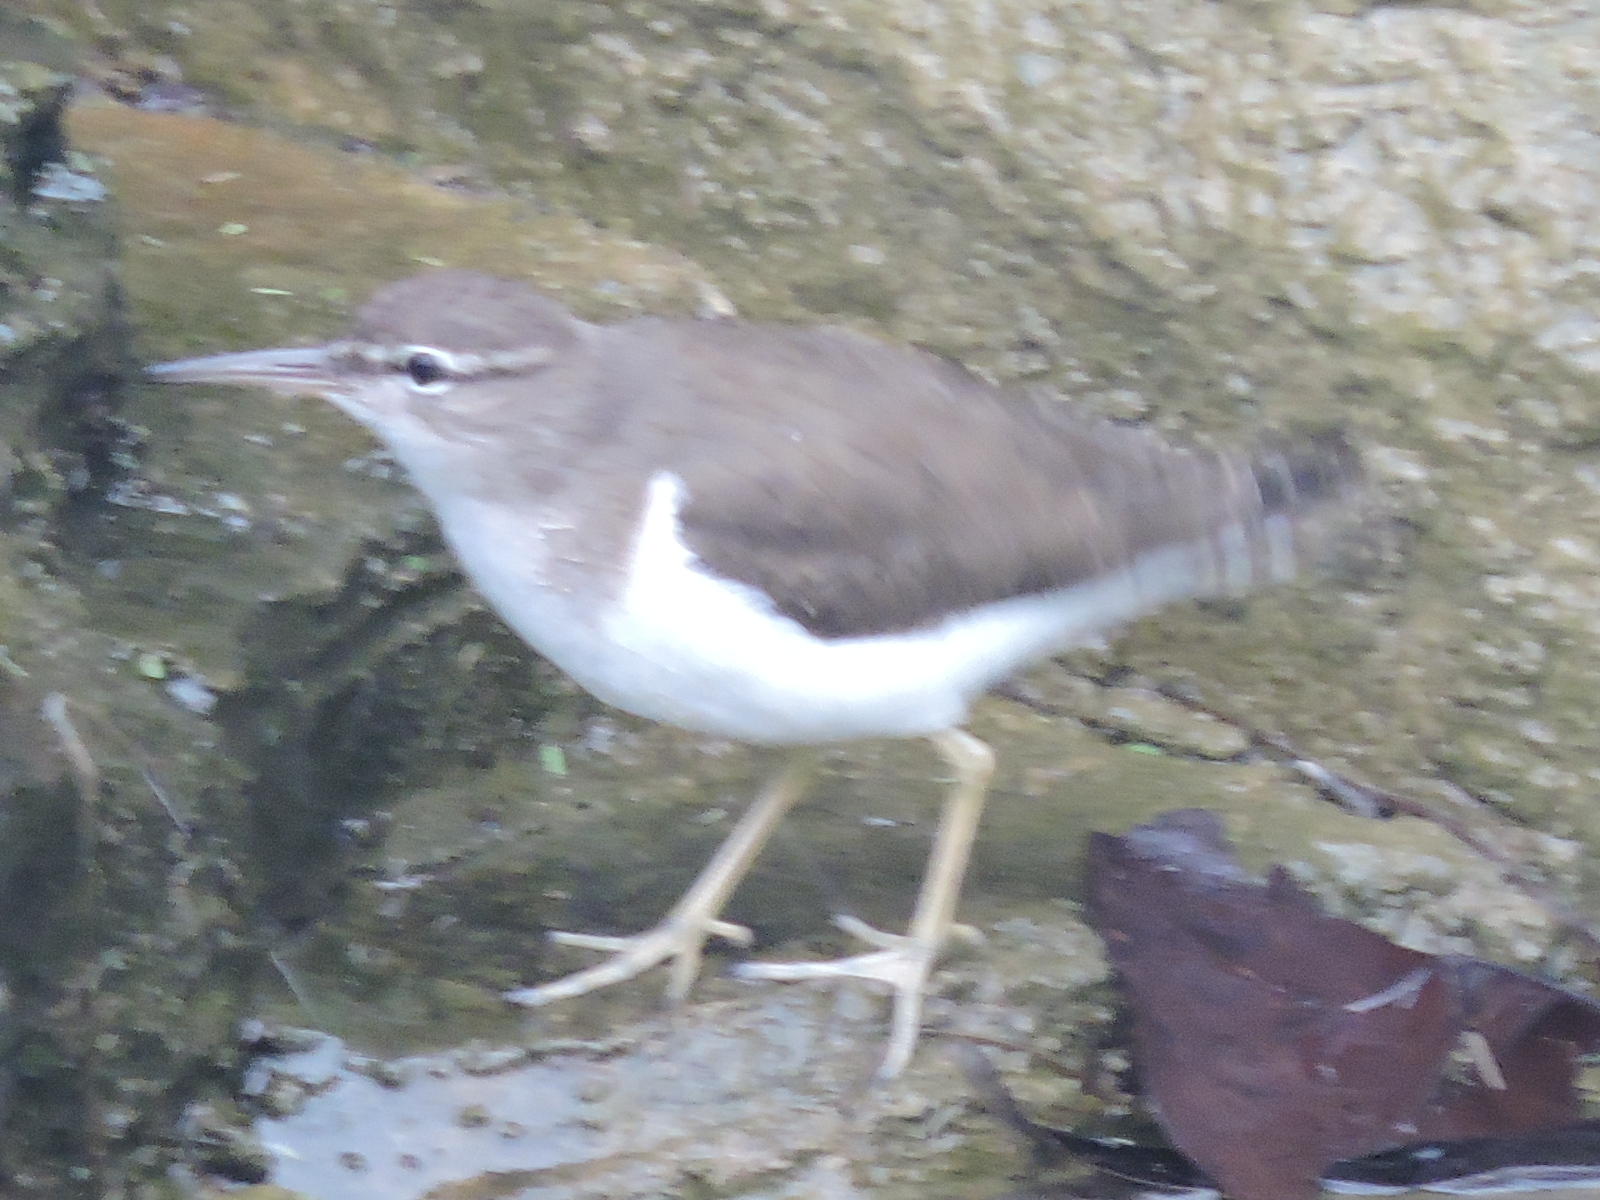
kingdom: Animalia
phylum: Chordata
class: Aves
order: Charadriiformes
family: Scolopacidae
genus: Actitis
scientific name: Actitis macularius
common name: Spotted sandpiper
